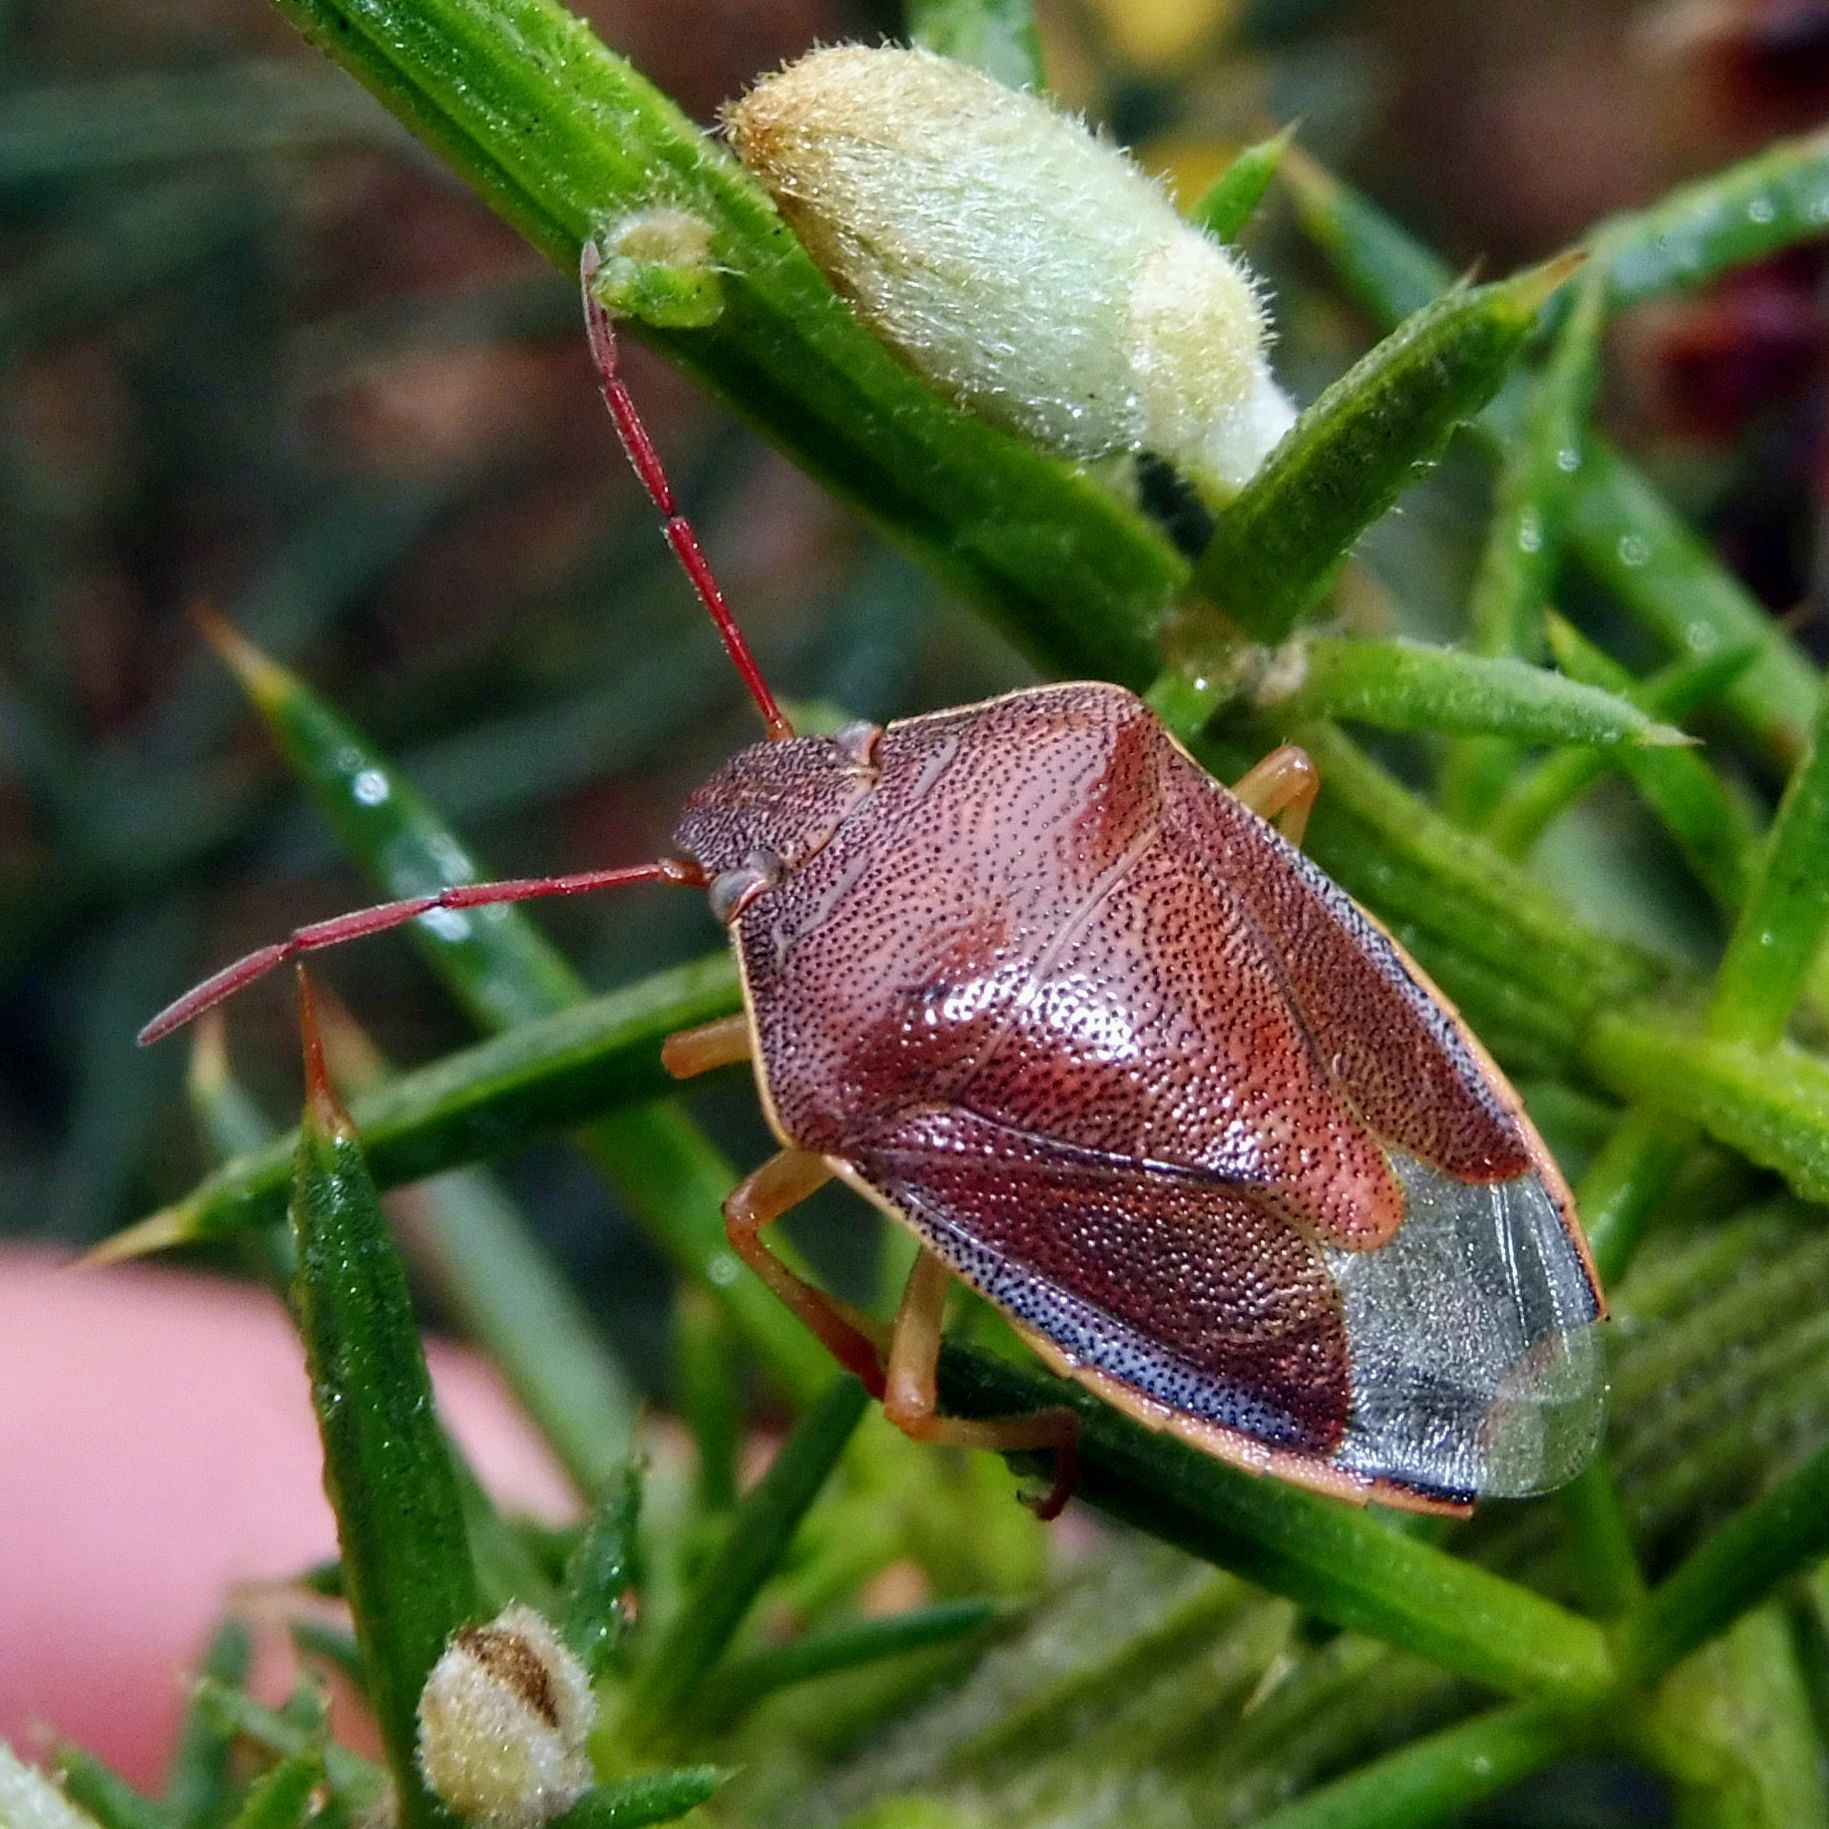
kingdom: Animalia
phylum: Arthropoda
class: Insecta
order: Hemiptera
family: Pentatomidae
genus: Piezodorus
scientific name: Piezodorus lituratus
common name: Stink bug
